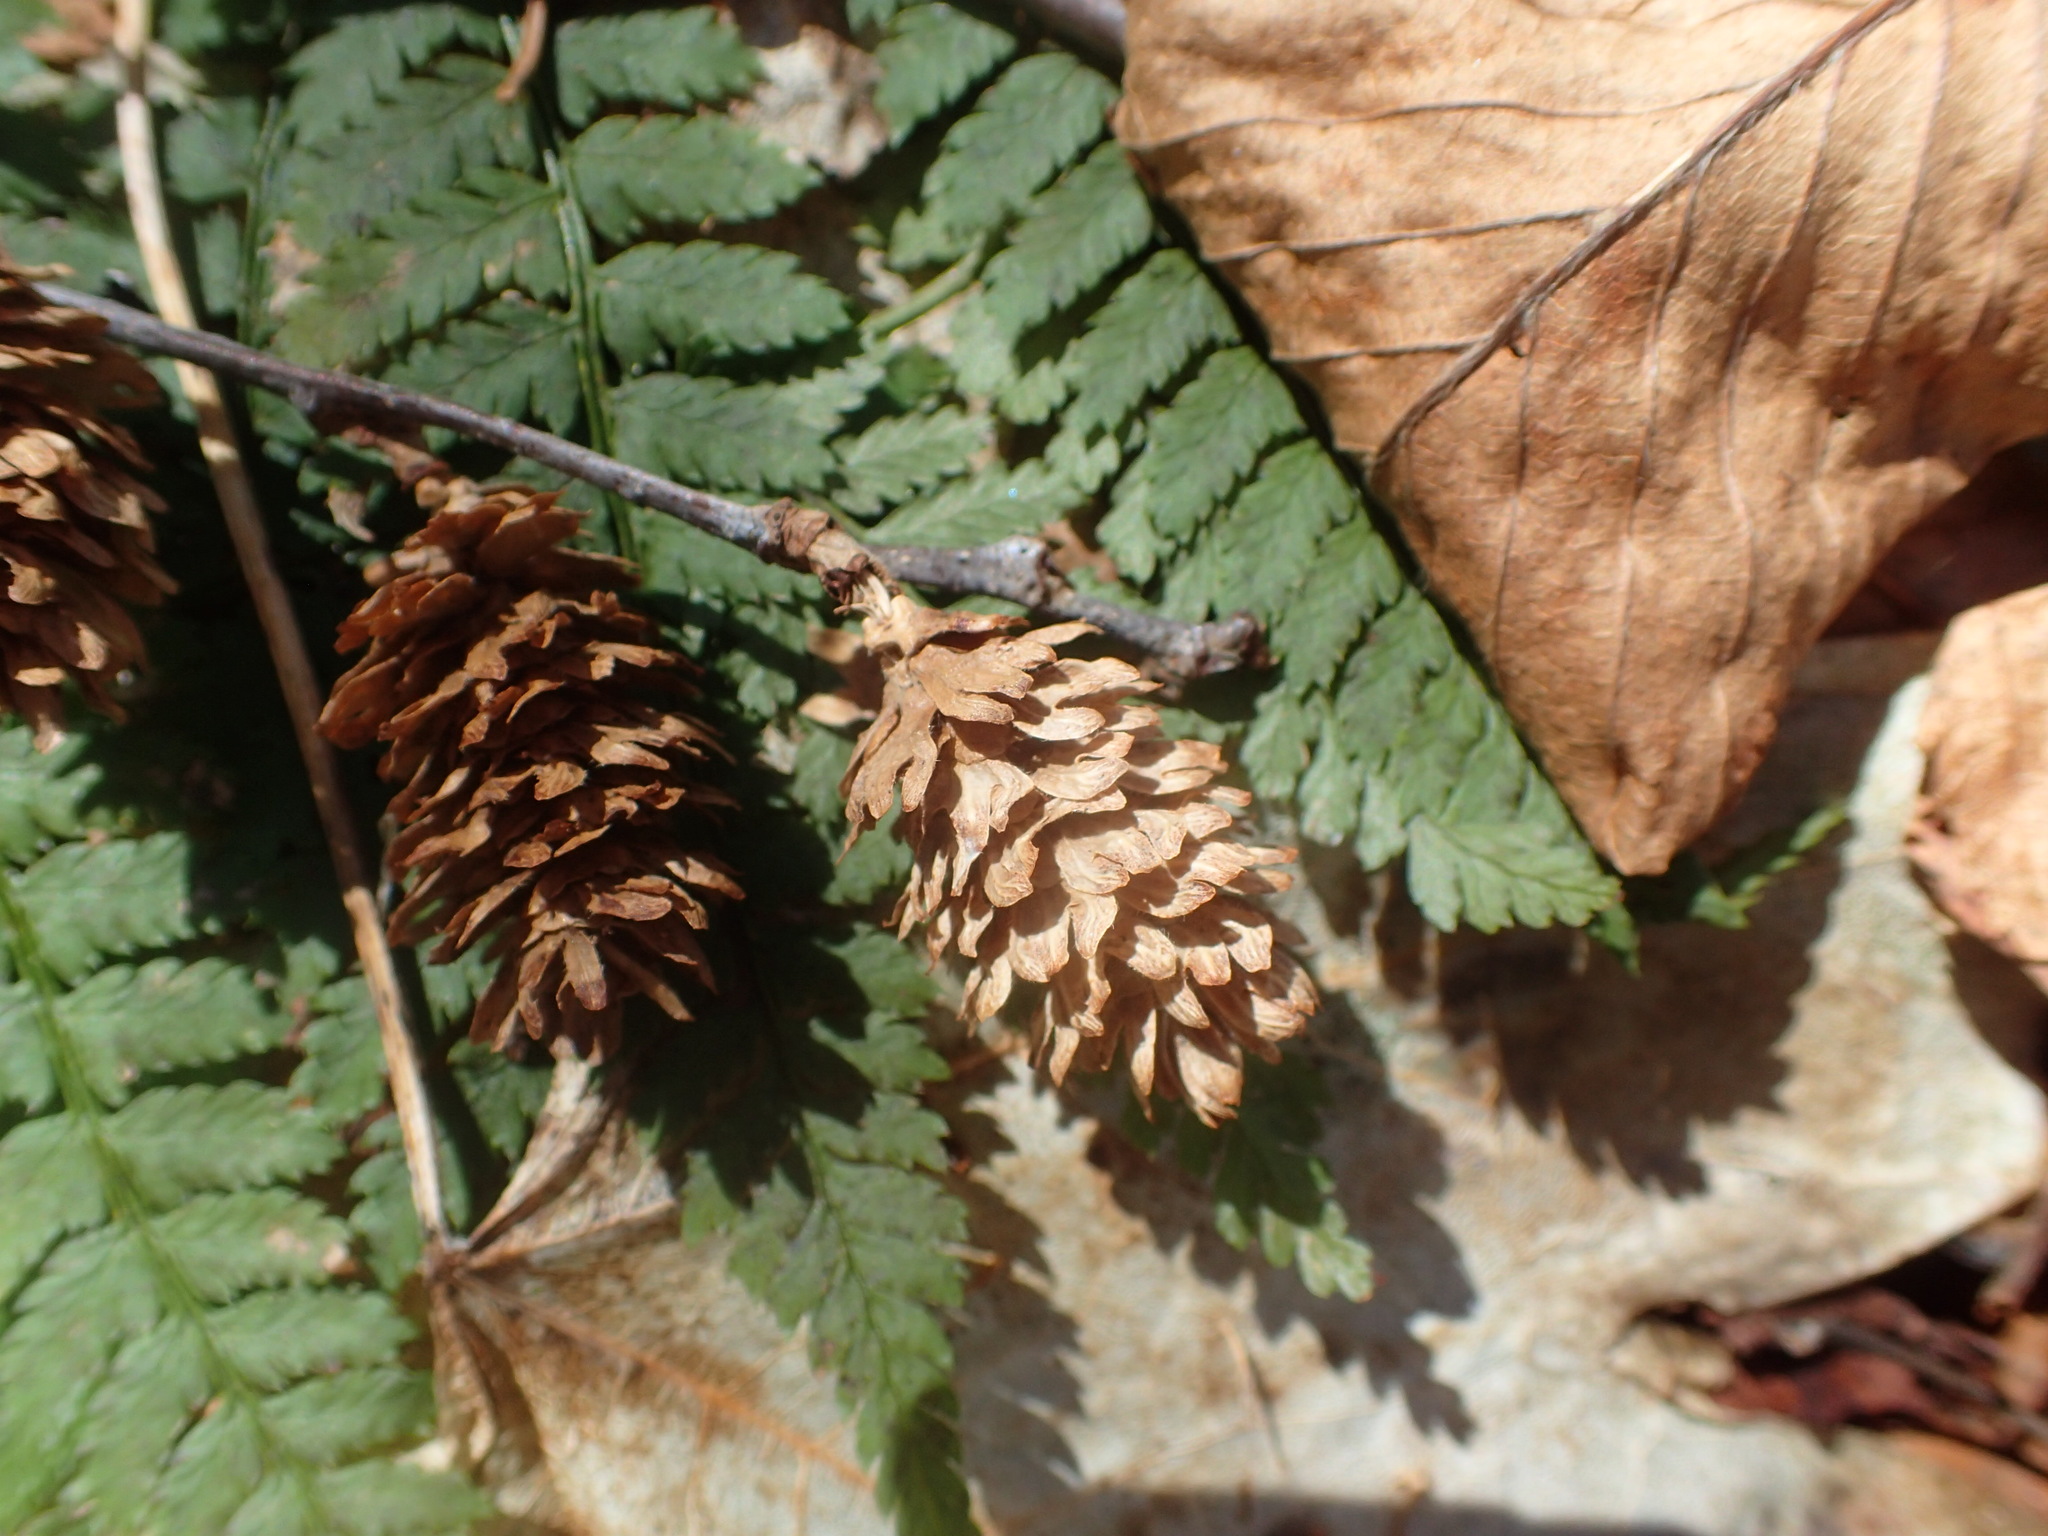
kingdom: Plantae
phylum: Tracheophyta
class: Magnoliopsida
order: Fagales
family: Betulaceae
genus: Betula
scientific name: Betula alleghaniensis
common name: Yellow birch
